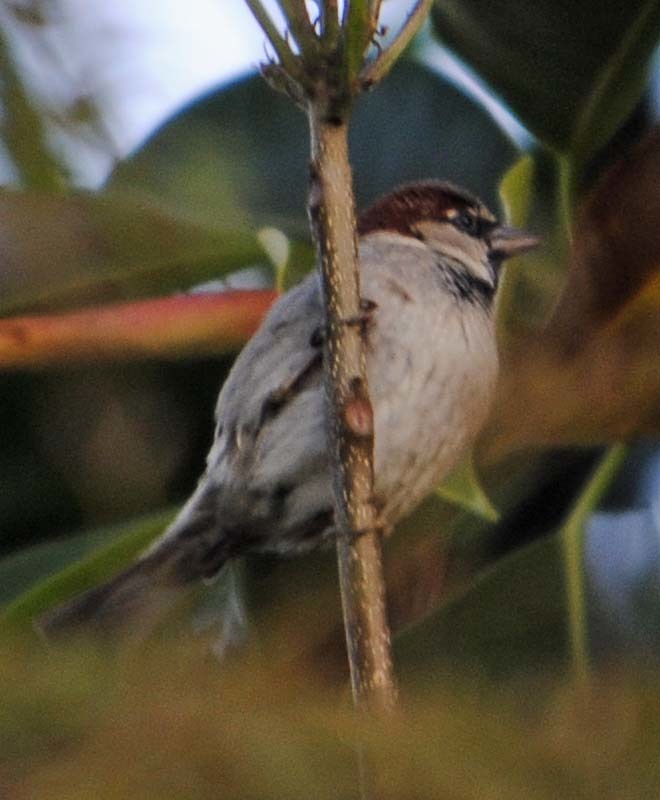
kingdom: Animalia
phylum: Chordata
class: Aves
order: Passeriformes
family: Passeridae
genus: Passer
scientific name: Passer domesticus
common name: House sparrow
